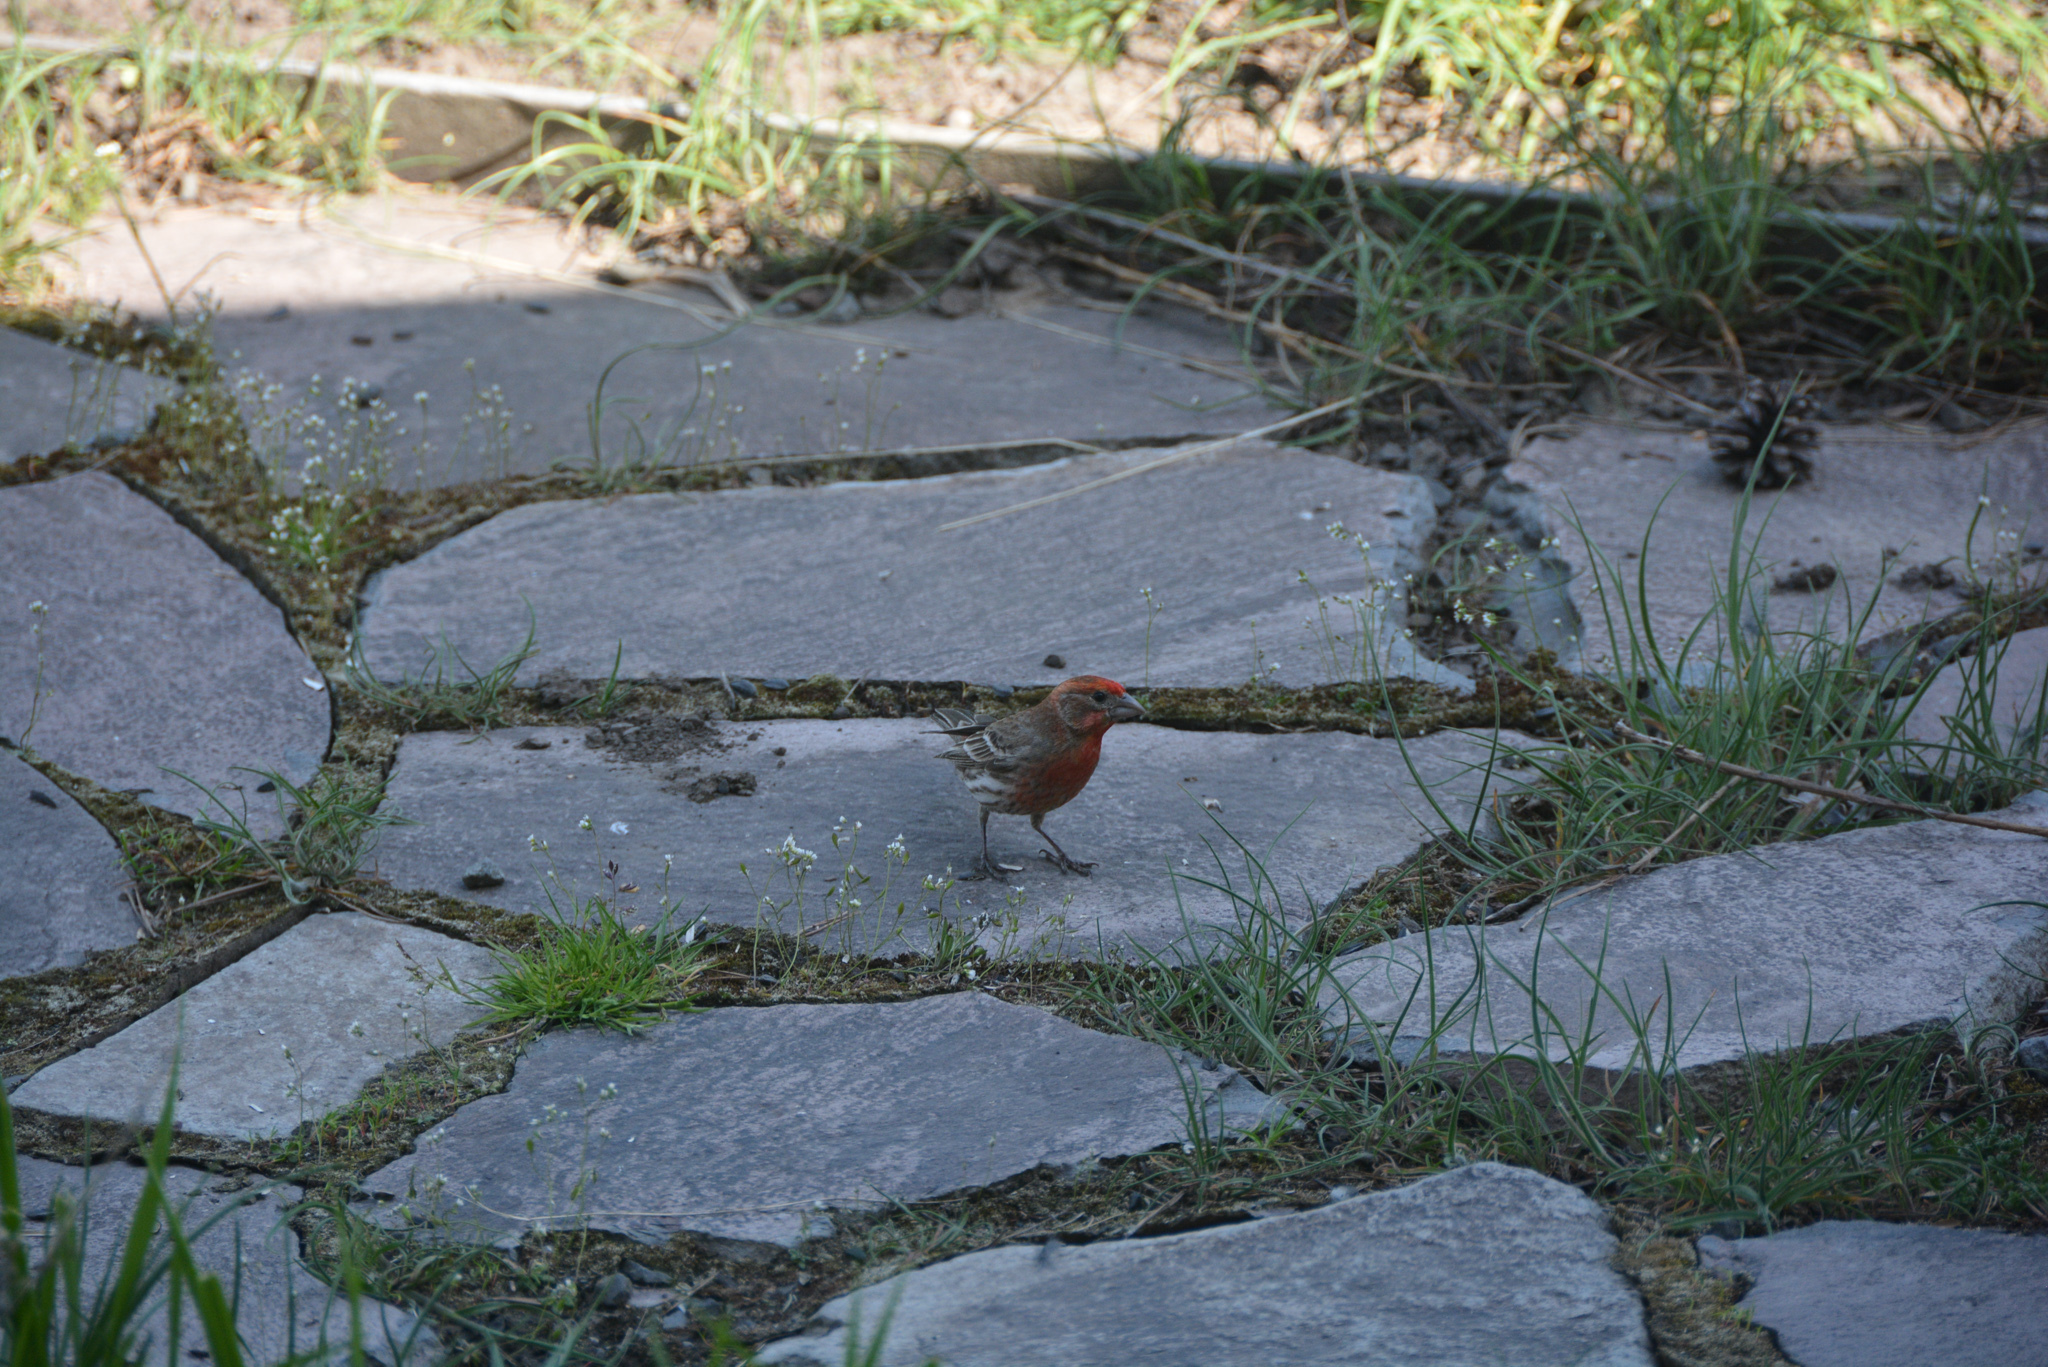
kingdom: Animalia
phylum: Chordata
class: Aves
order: Passeriformes
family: Fringillidae
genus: Haemorhous
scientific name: Haemorhous mexicanus
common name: House finch
